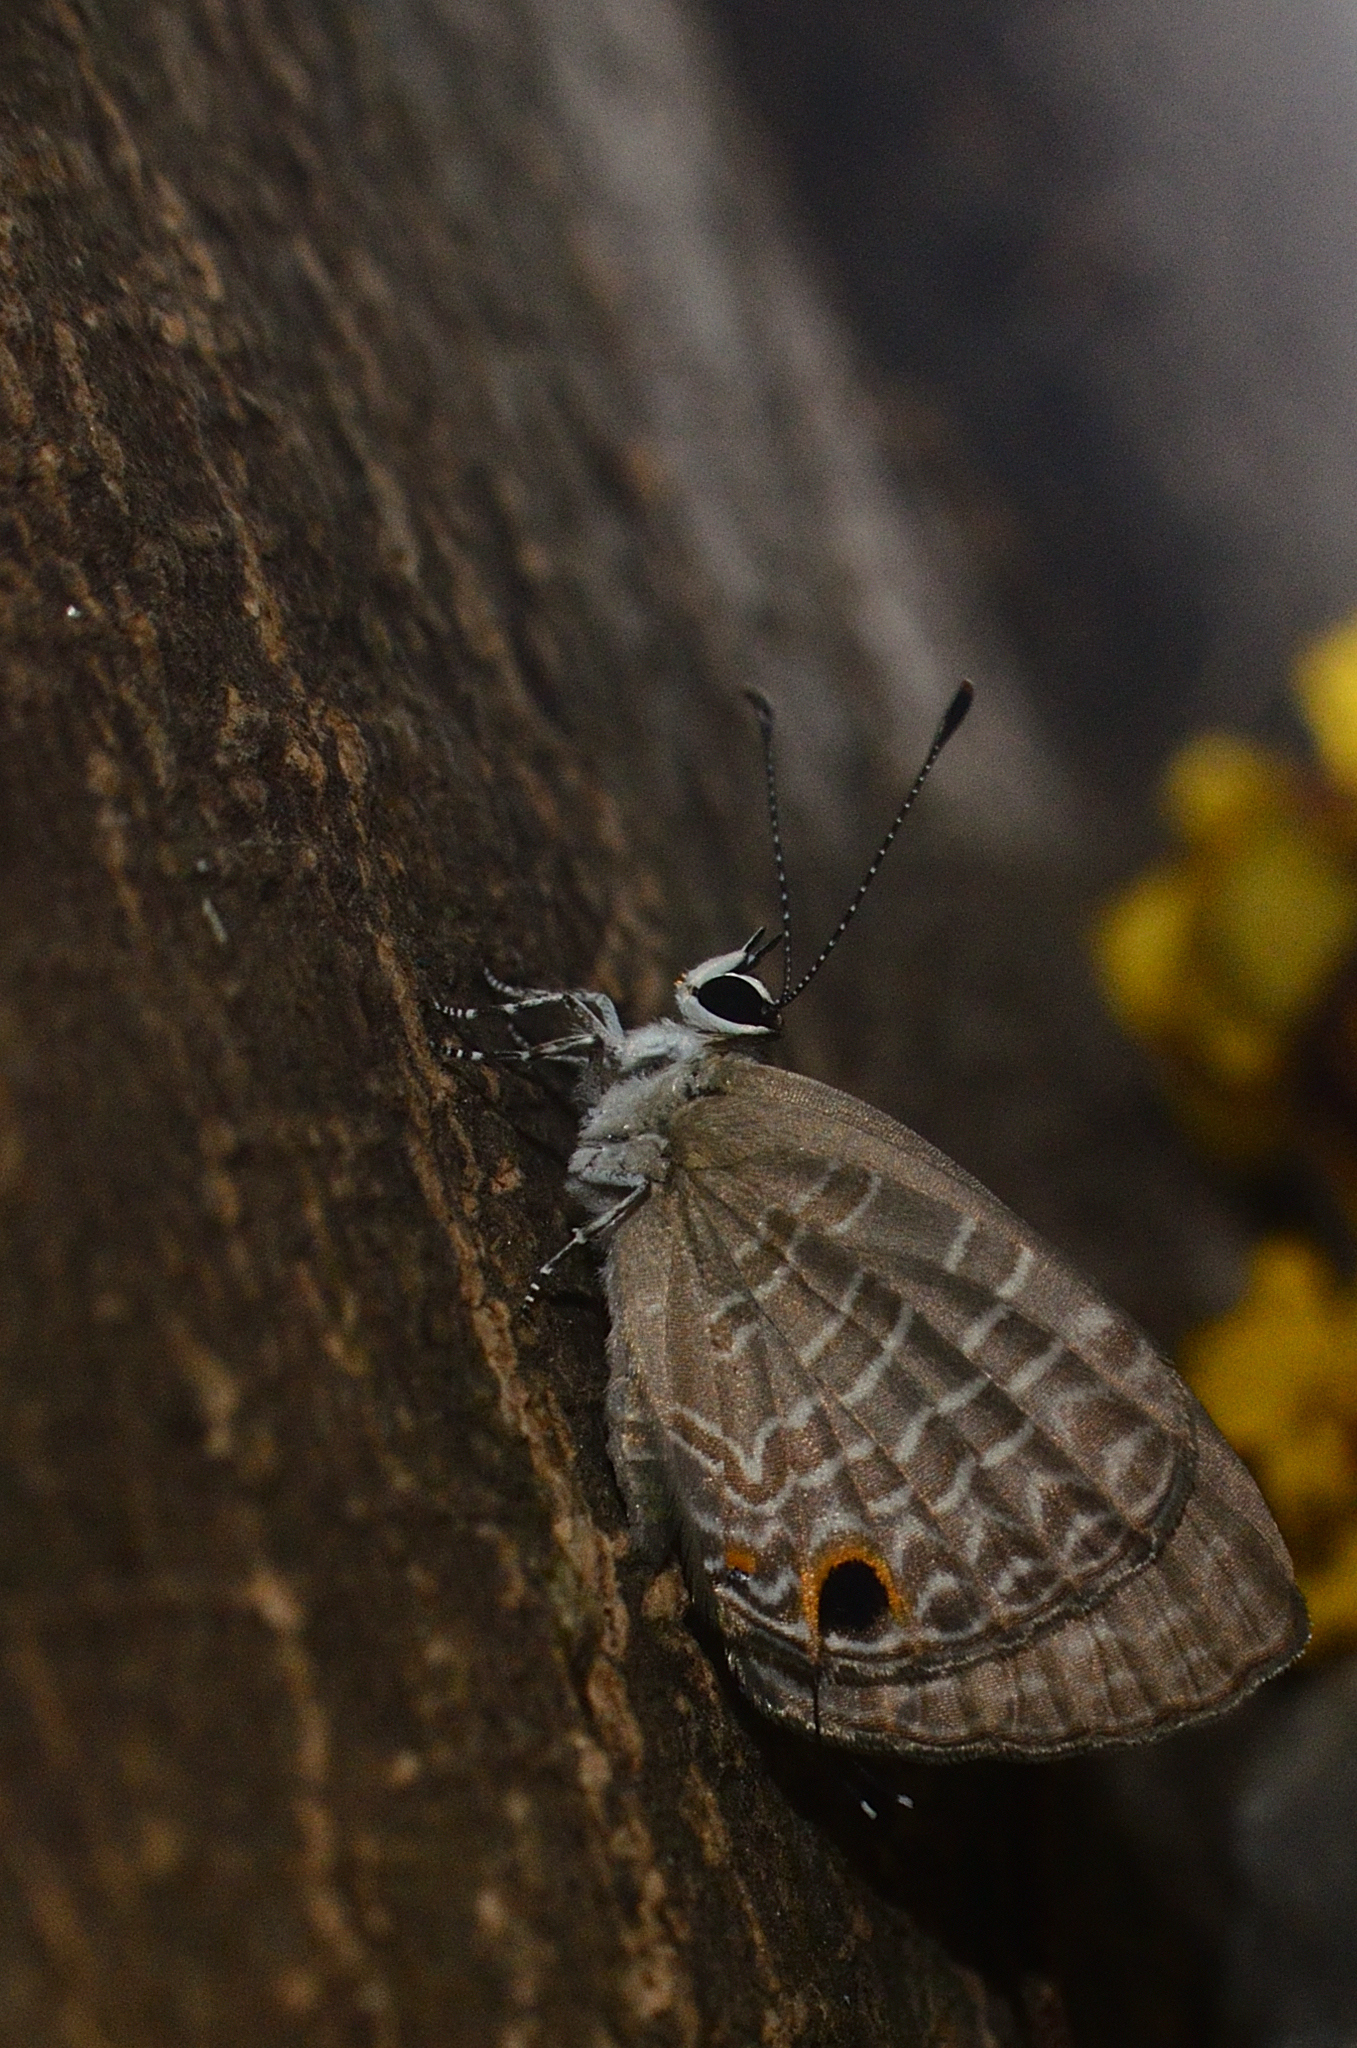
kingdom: Animalia
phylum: Arthropoda
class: Insecta
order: Lepidoptera
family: Lycaenidae
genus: Jamides
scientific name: Jamides bochus
